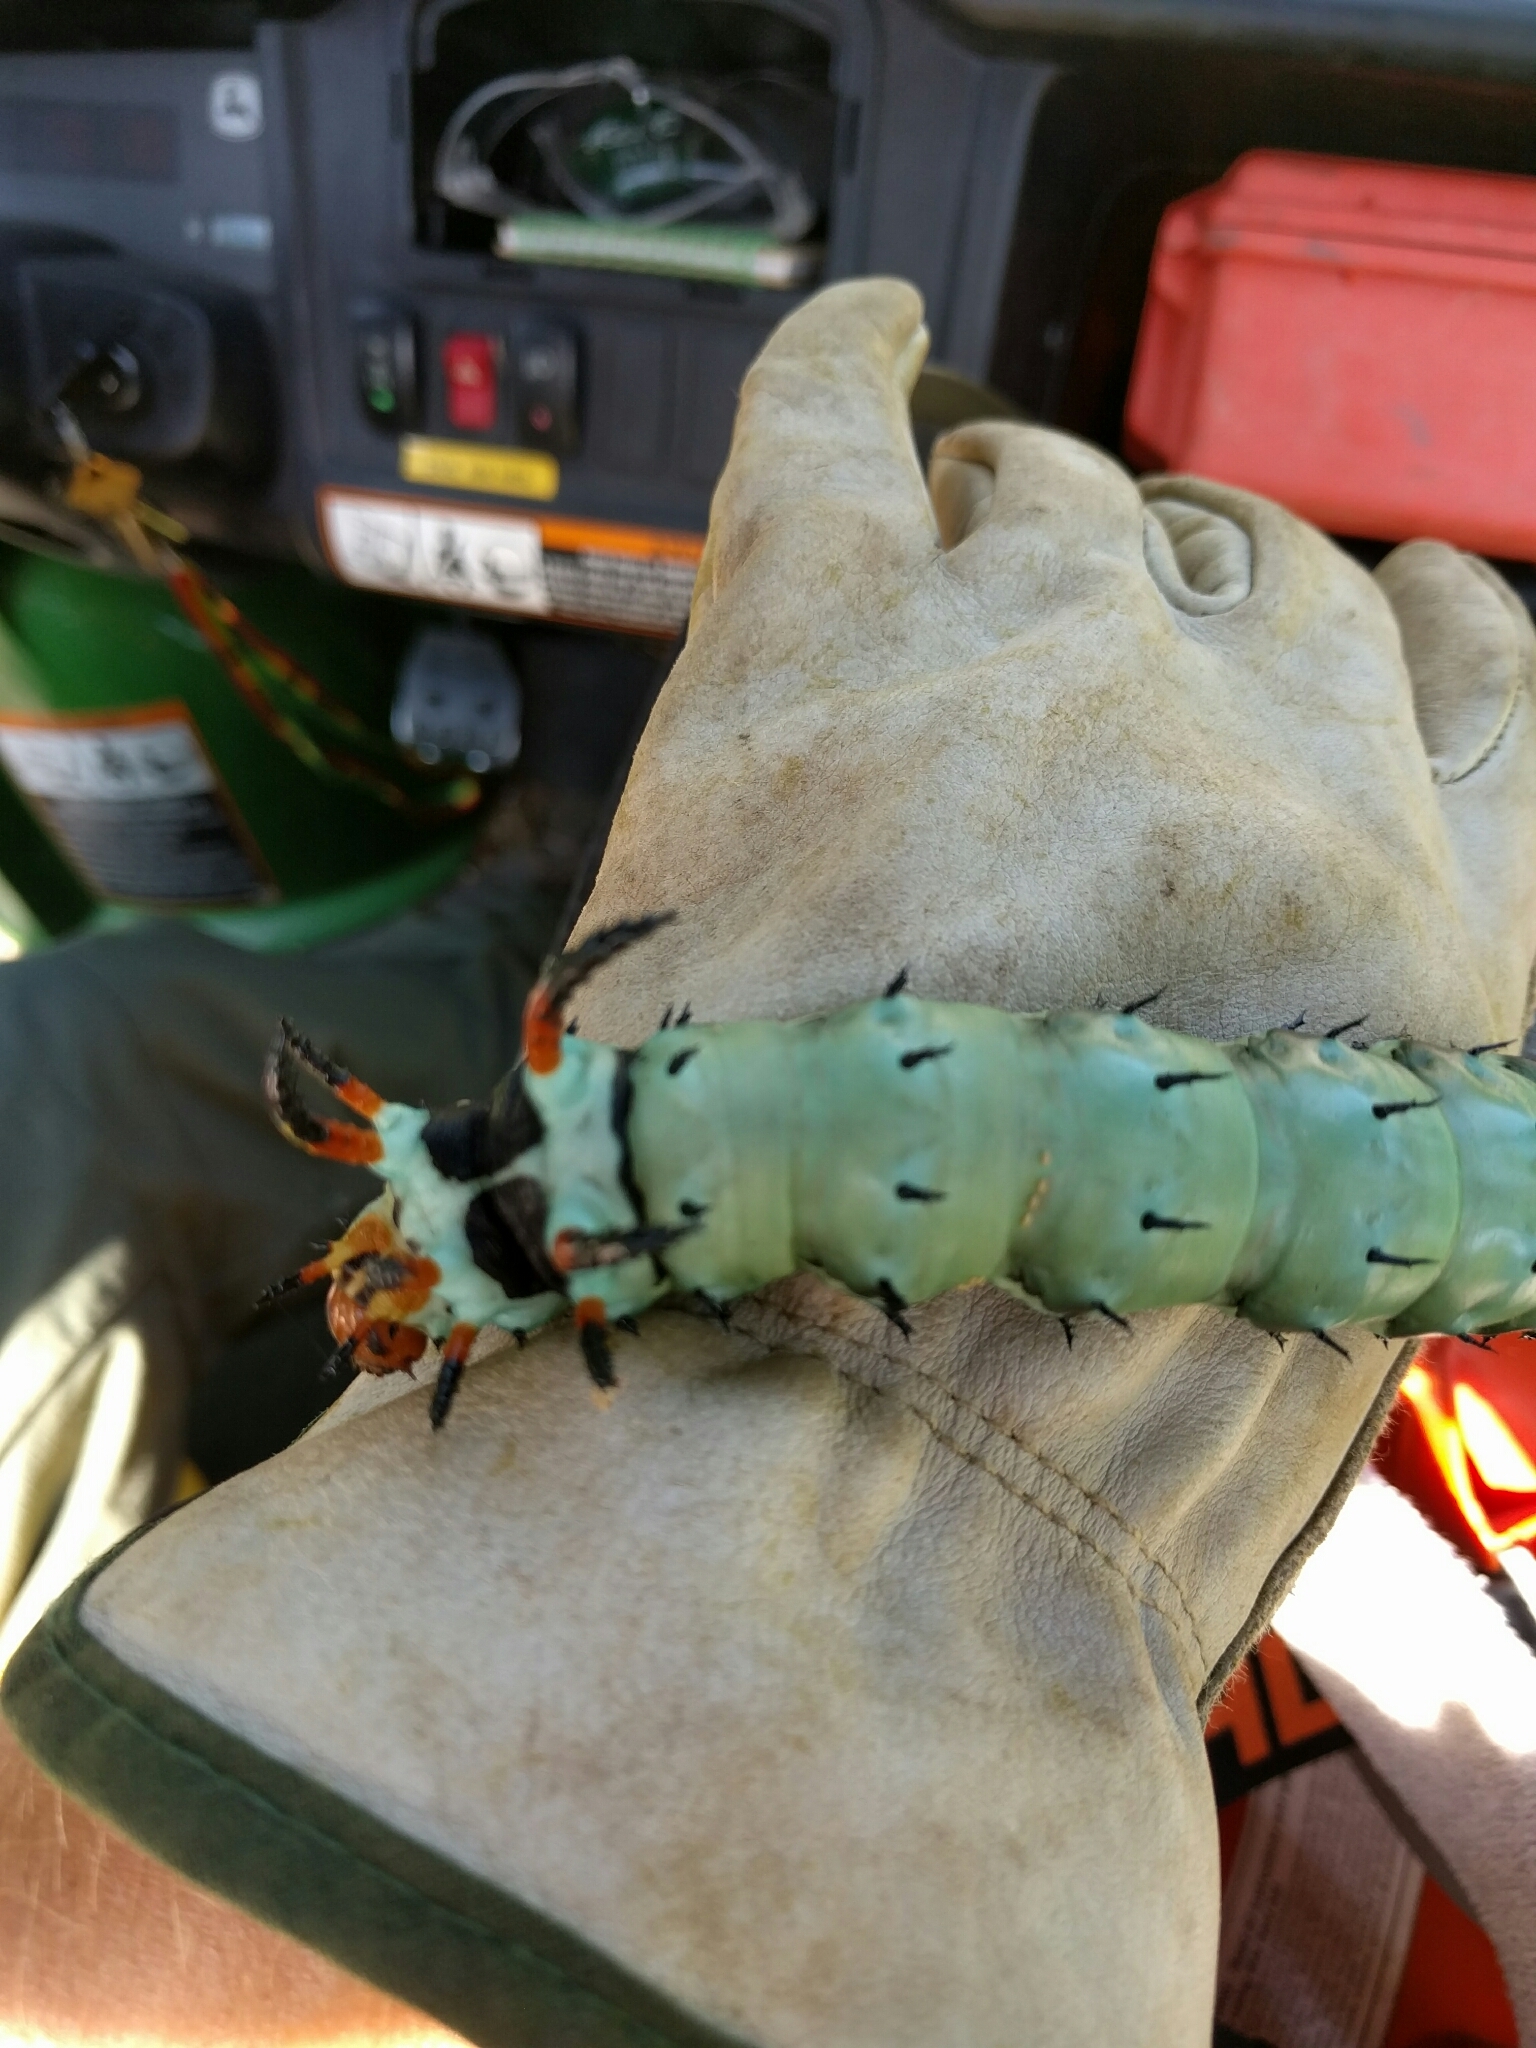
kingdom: Animalia
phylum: Arthropoda
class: Insecta
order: Lepidoptera
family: Saturniidae
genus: Citheronia
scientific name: Citheronia regalis
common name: Hickory horned devil
